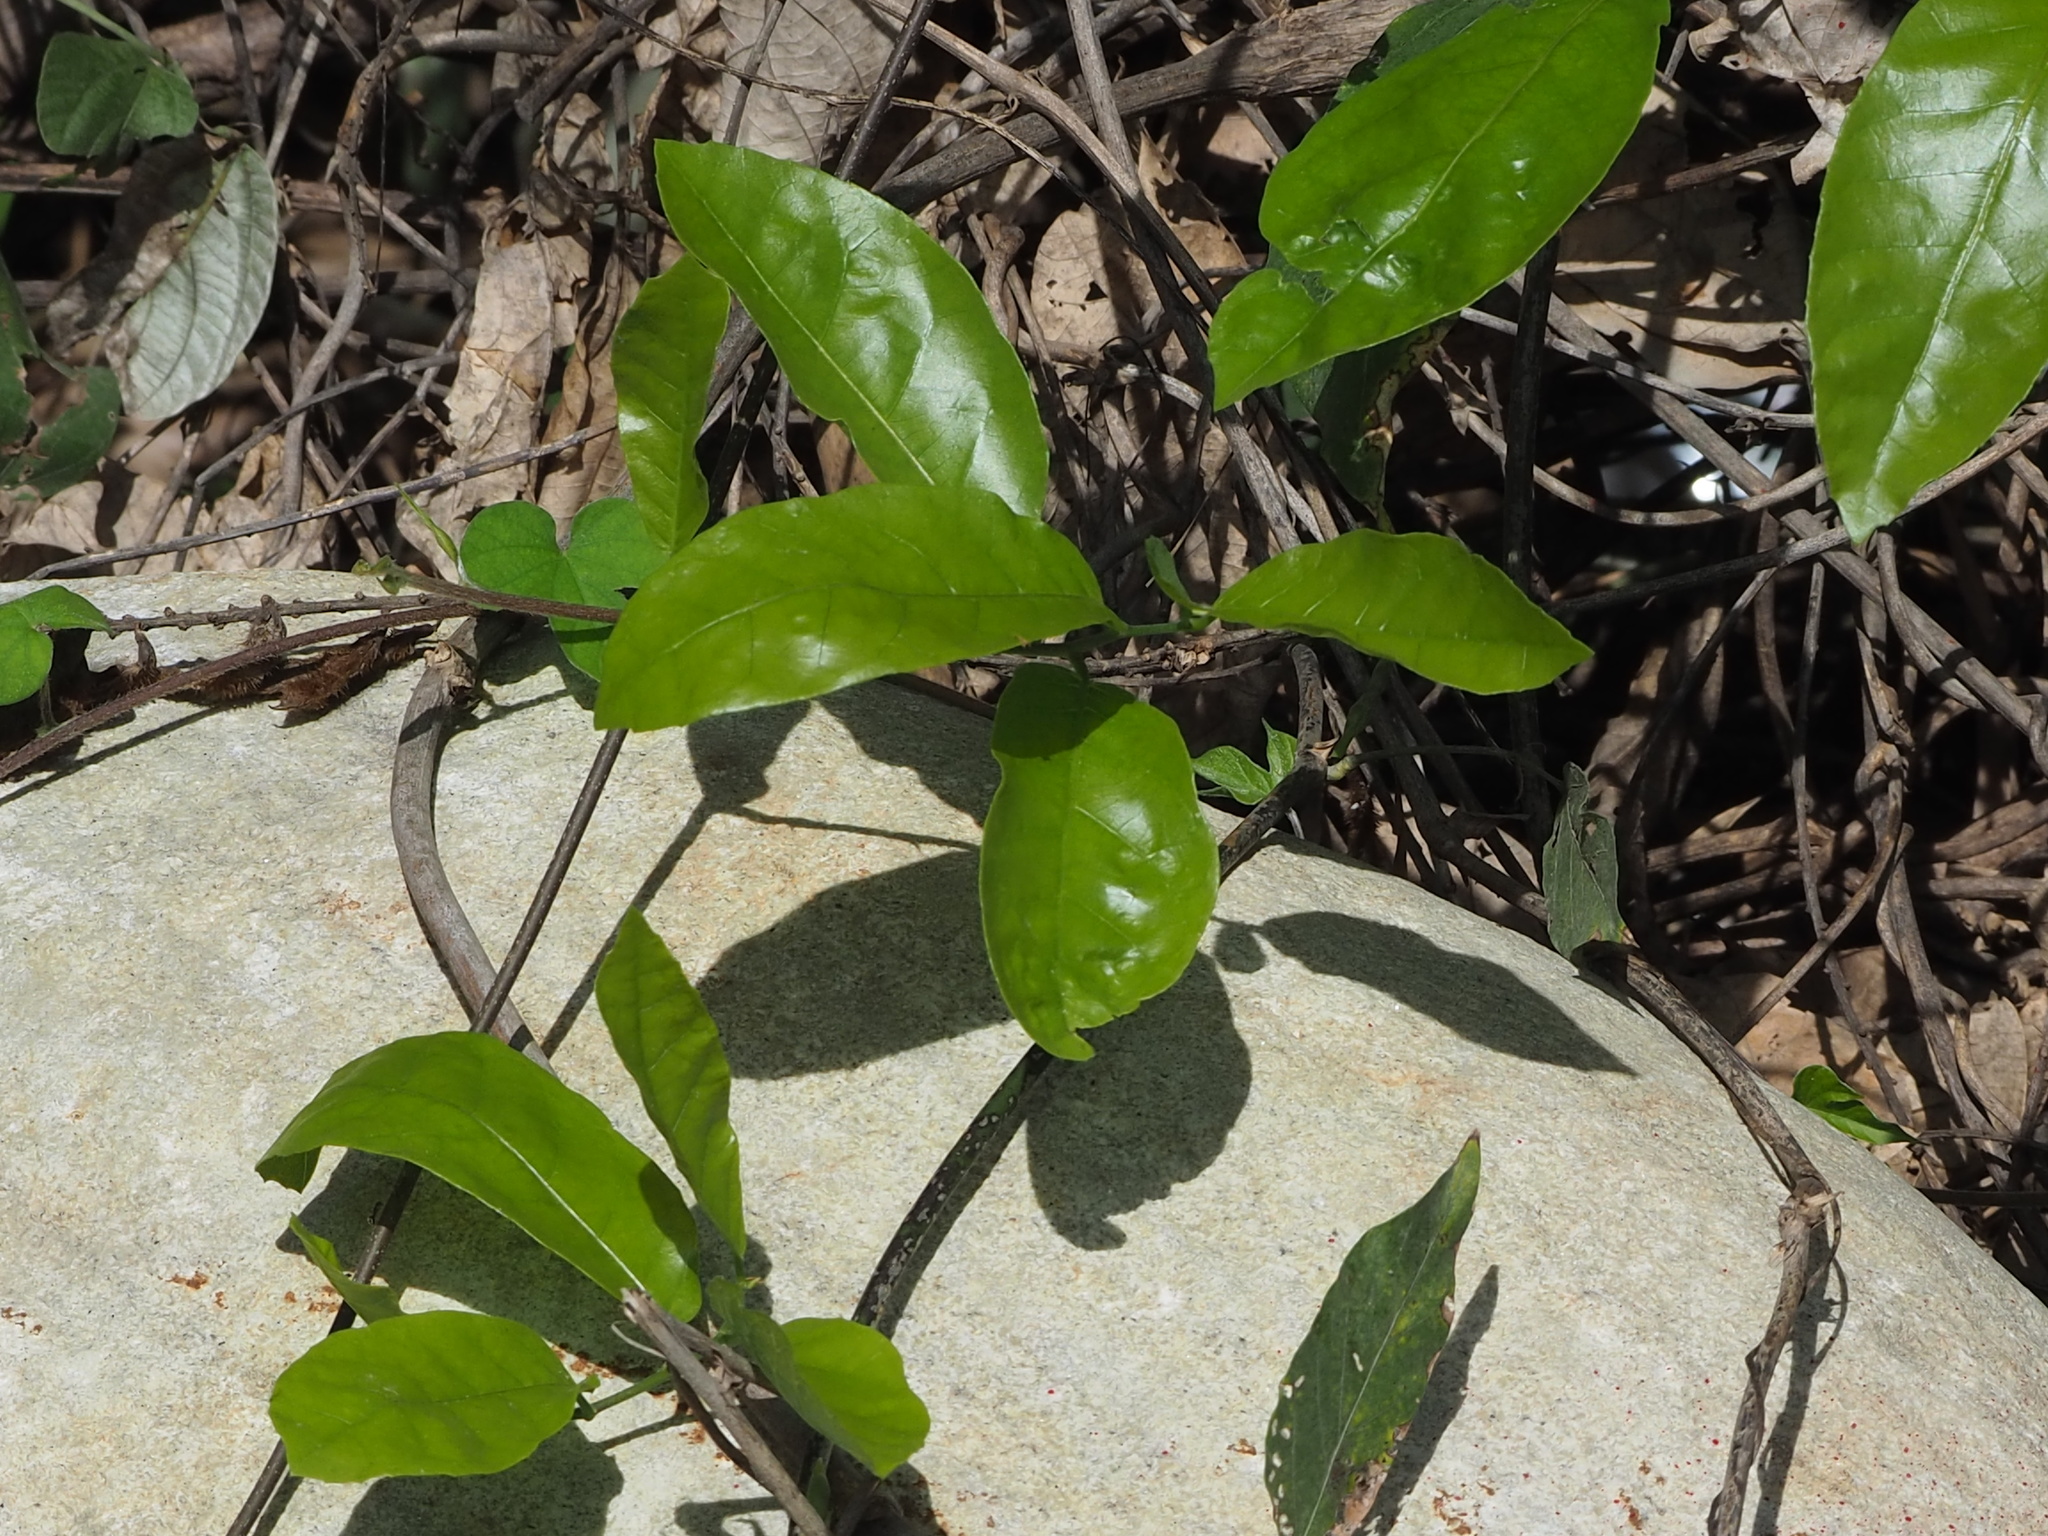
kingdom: Plantae
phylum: Tracheophyta
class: Magnoliopsida
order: Rosales
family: Moraceae
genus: Malaisia
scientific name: Malaisia scandens
